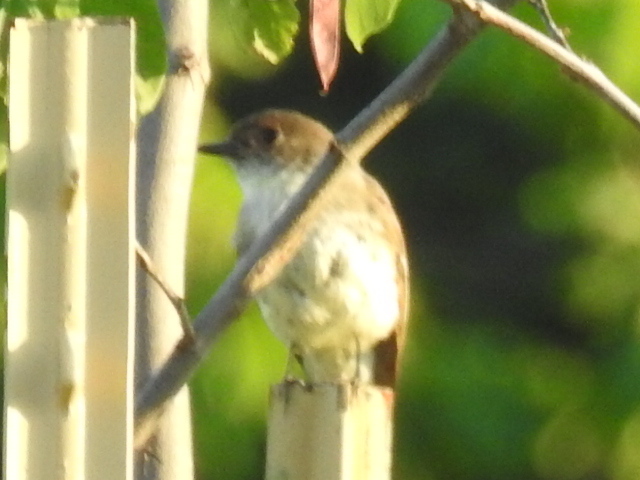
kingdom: Animalia
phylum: Chordata
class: Aves
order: Passeriformes
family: Tyrannidae
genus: Sayornis
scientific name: Sayornis phoebe
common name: Eastern phoebe
